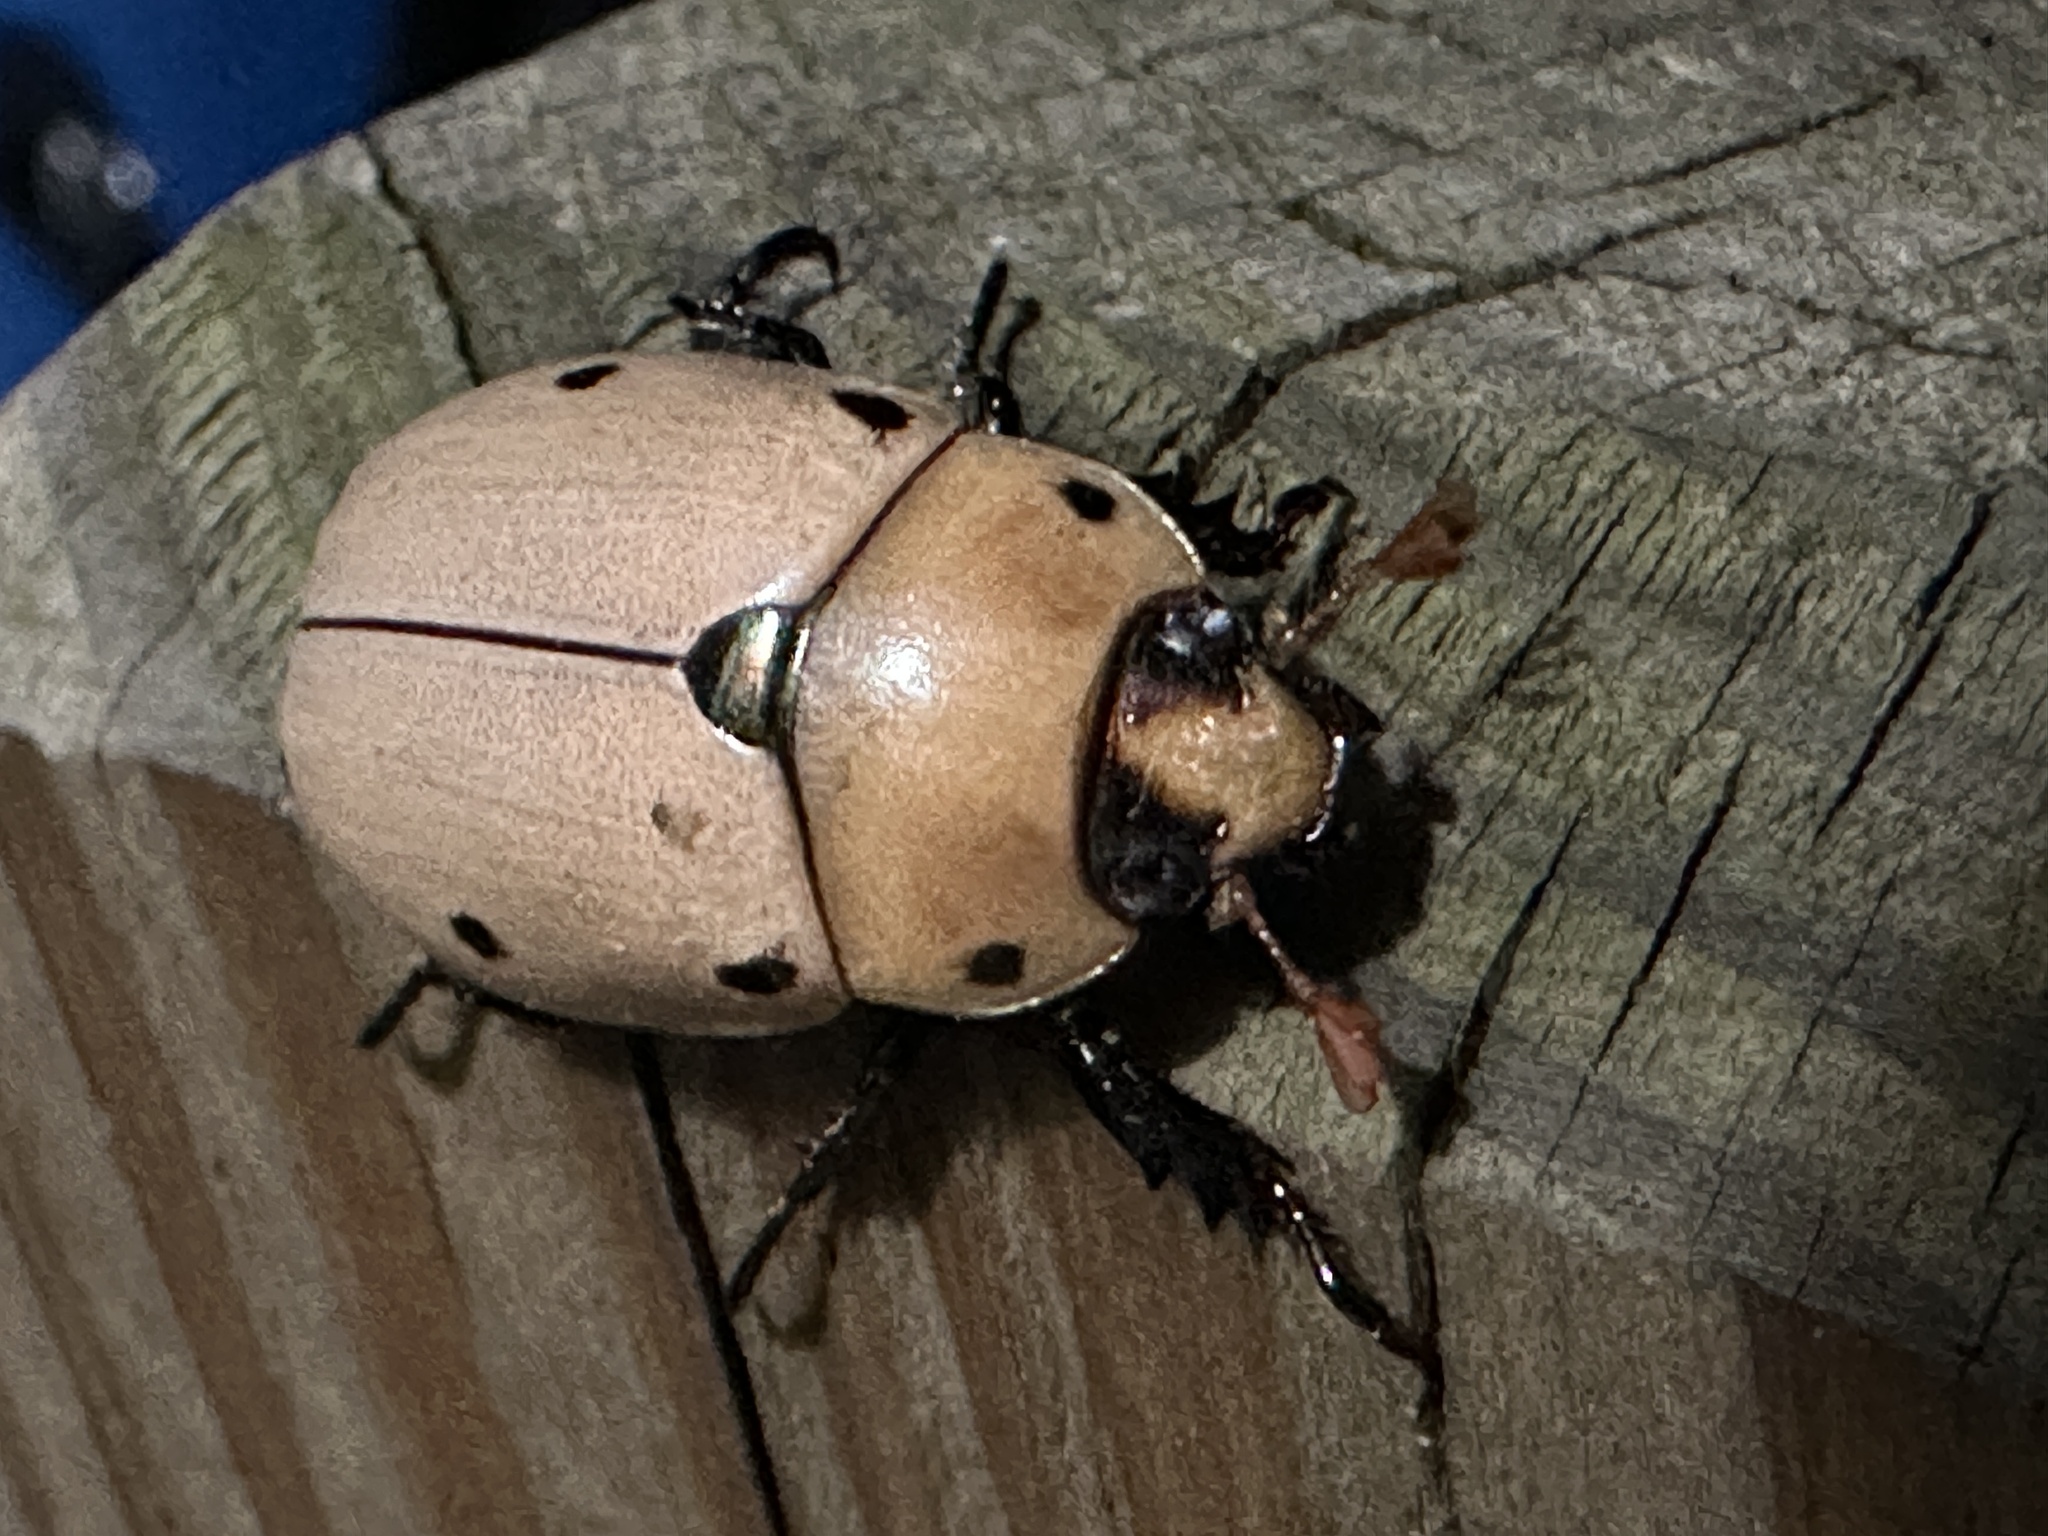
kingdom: Animalia
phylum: Arthropoda
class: Insecta
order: Coleoptera
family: Scarabaeidae
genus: Pelidnota
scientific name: Pelidnota punctata
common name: Grapevine beetle
